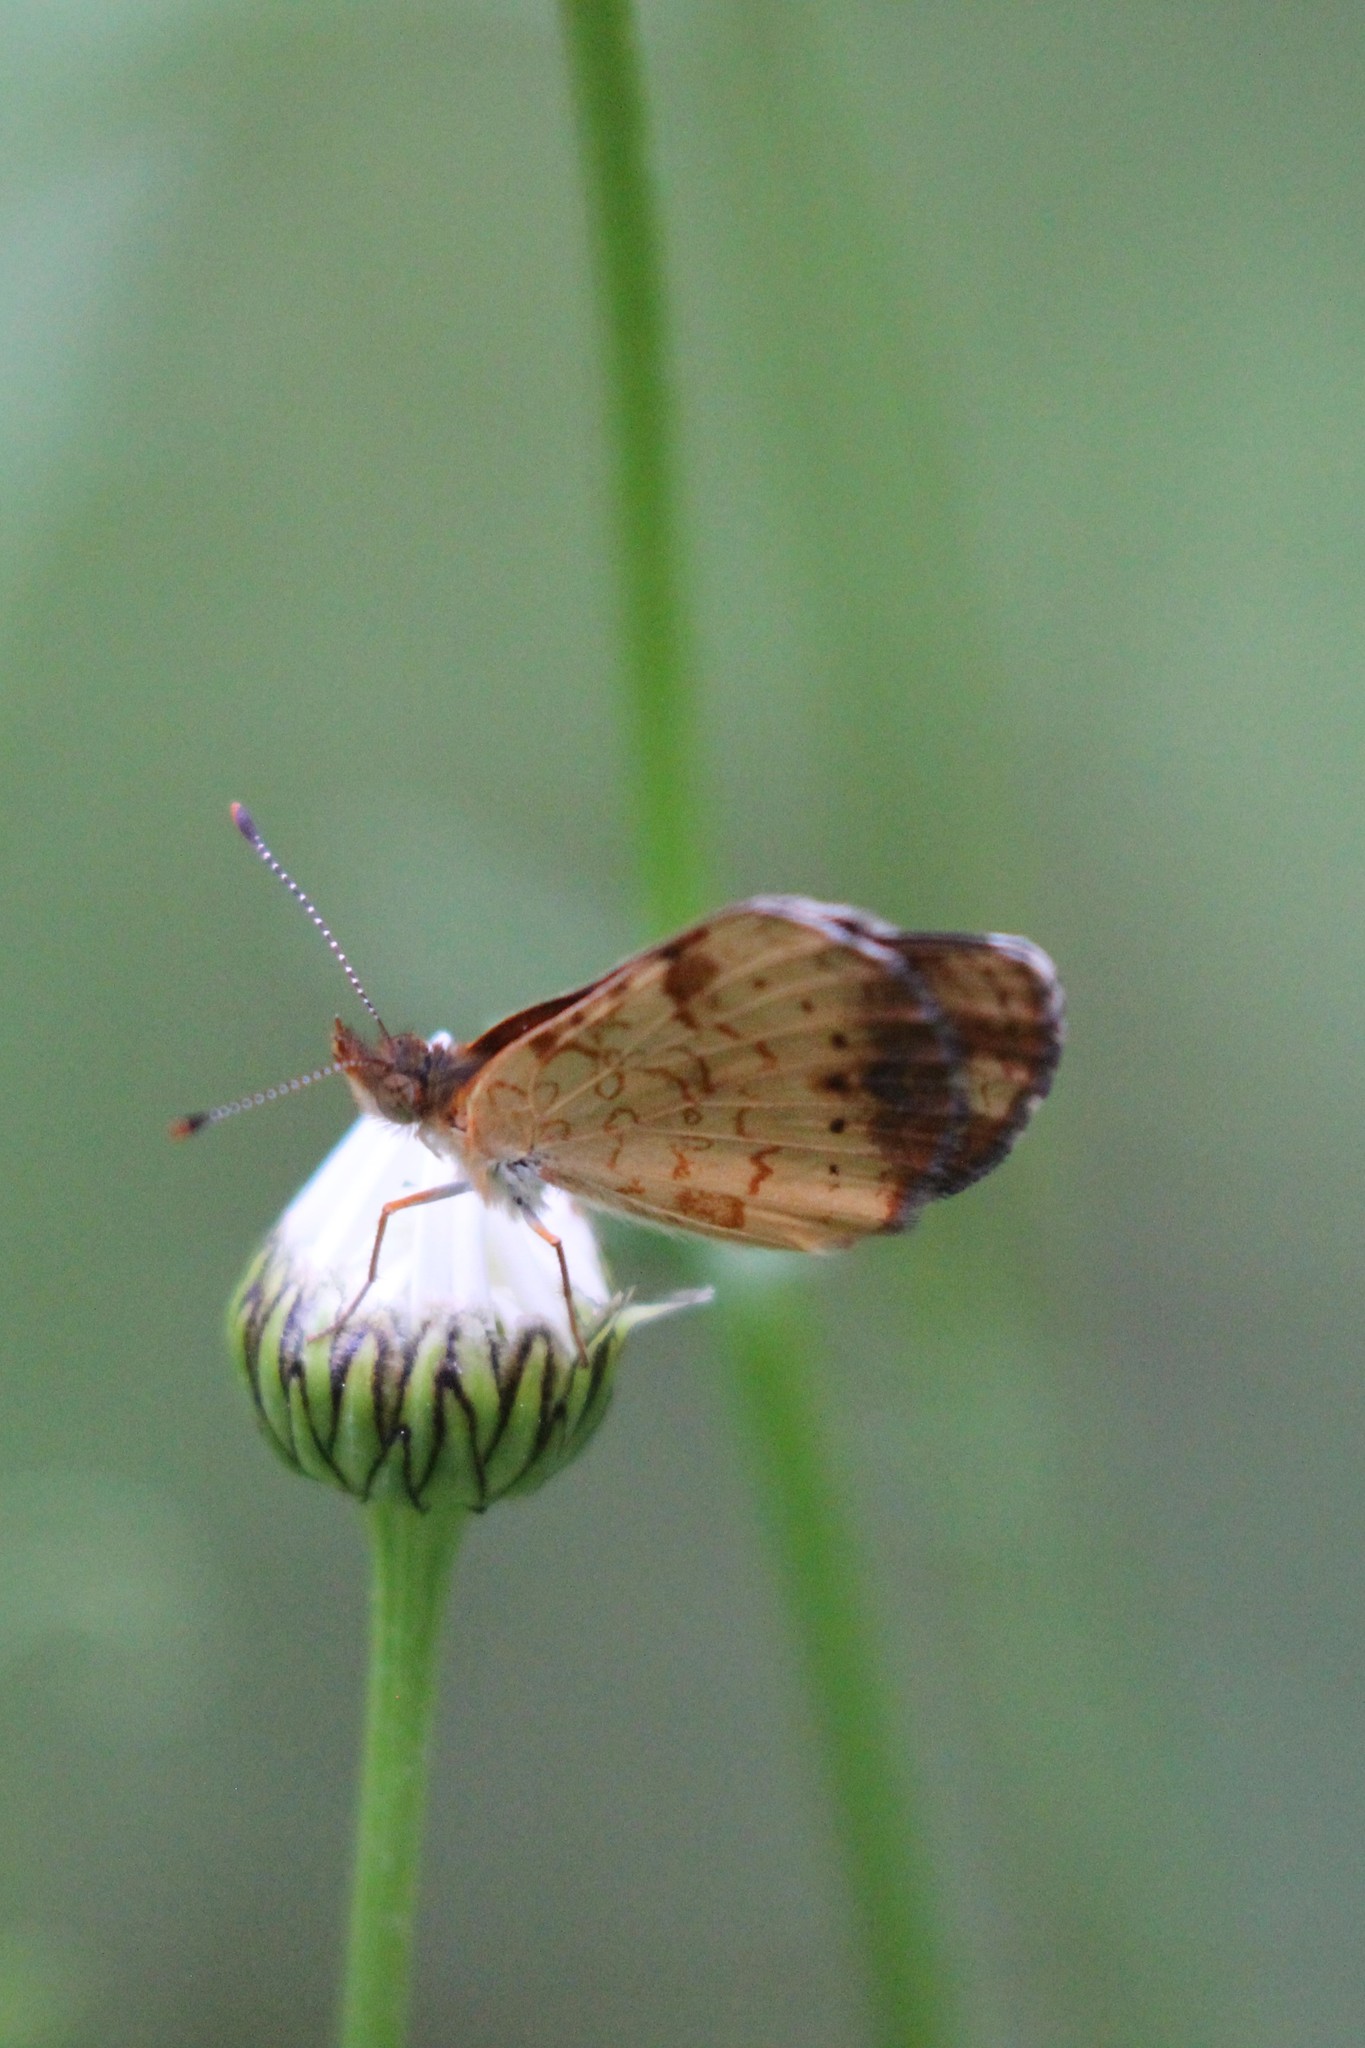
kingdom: Animalia
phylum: Arthropoda
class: Insecta
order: Lepidoptera
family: Nymphalidae
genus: Phyciodes
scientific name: Phyciodes tharos
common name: Pearl crescent
